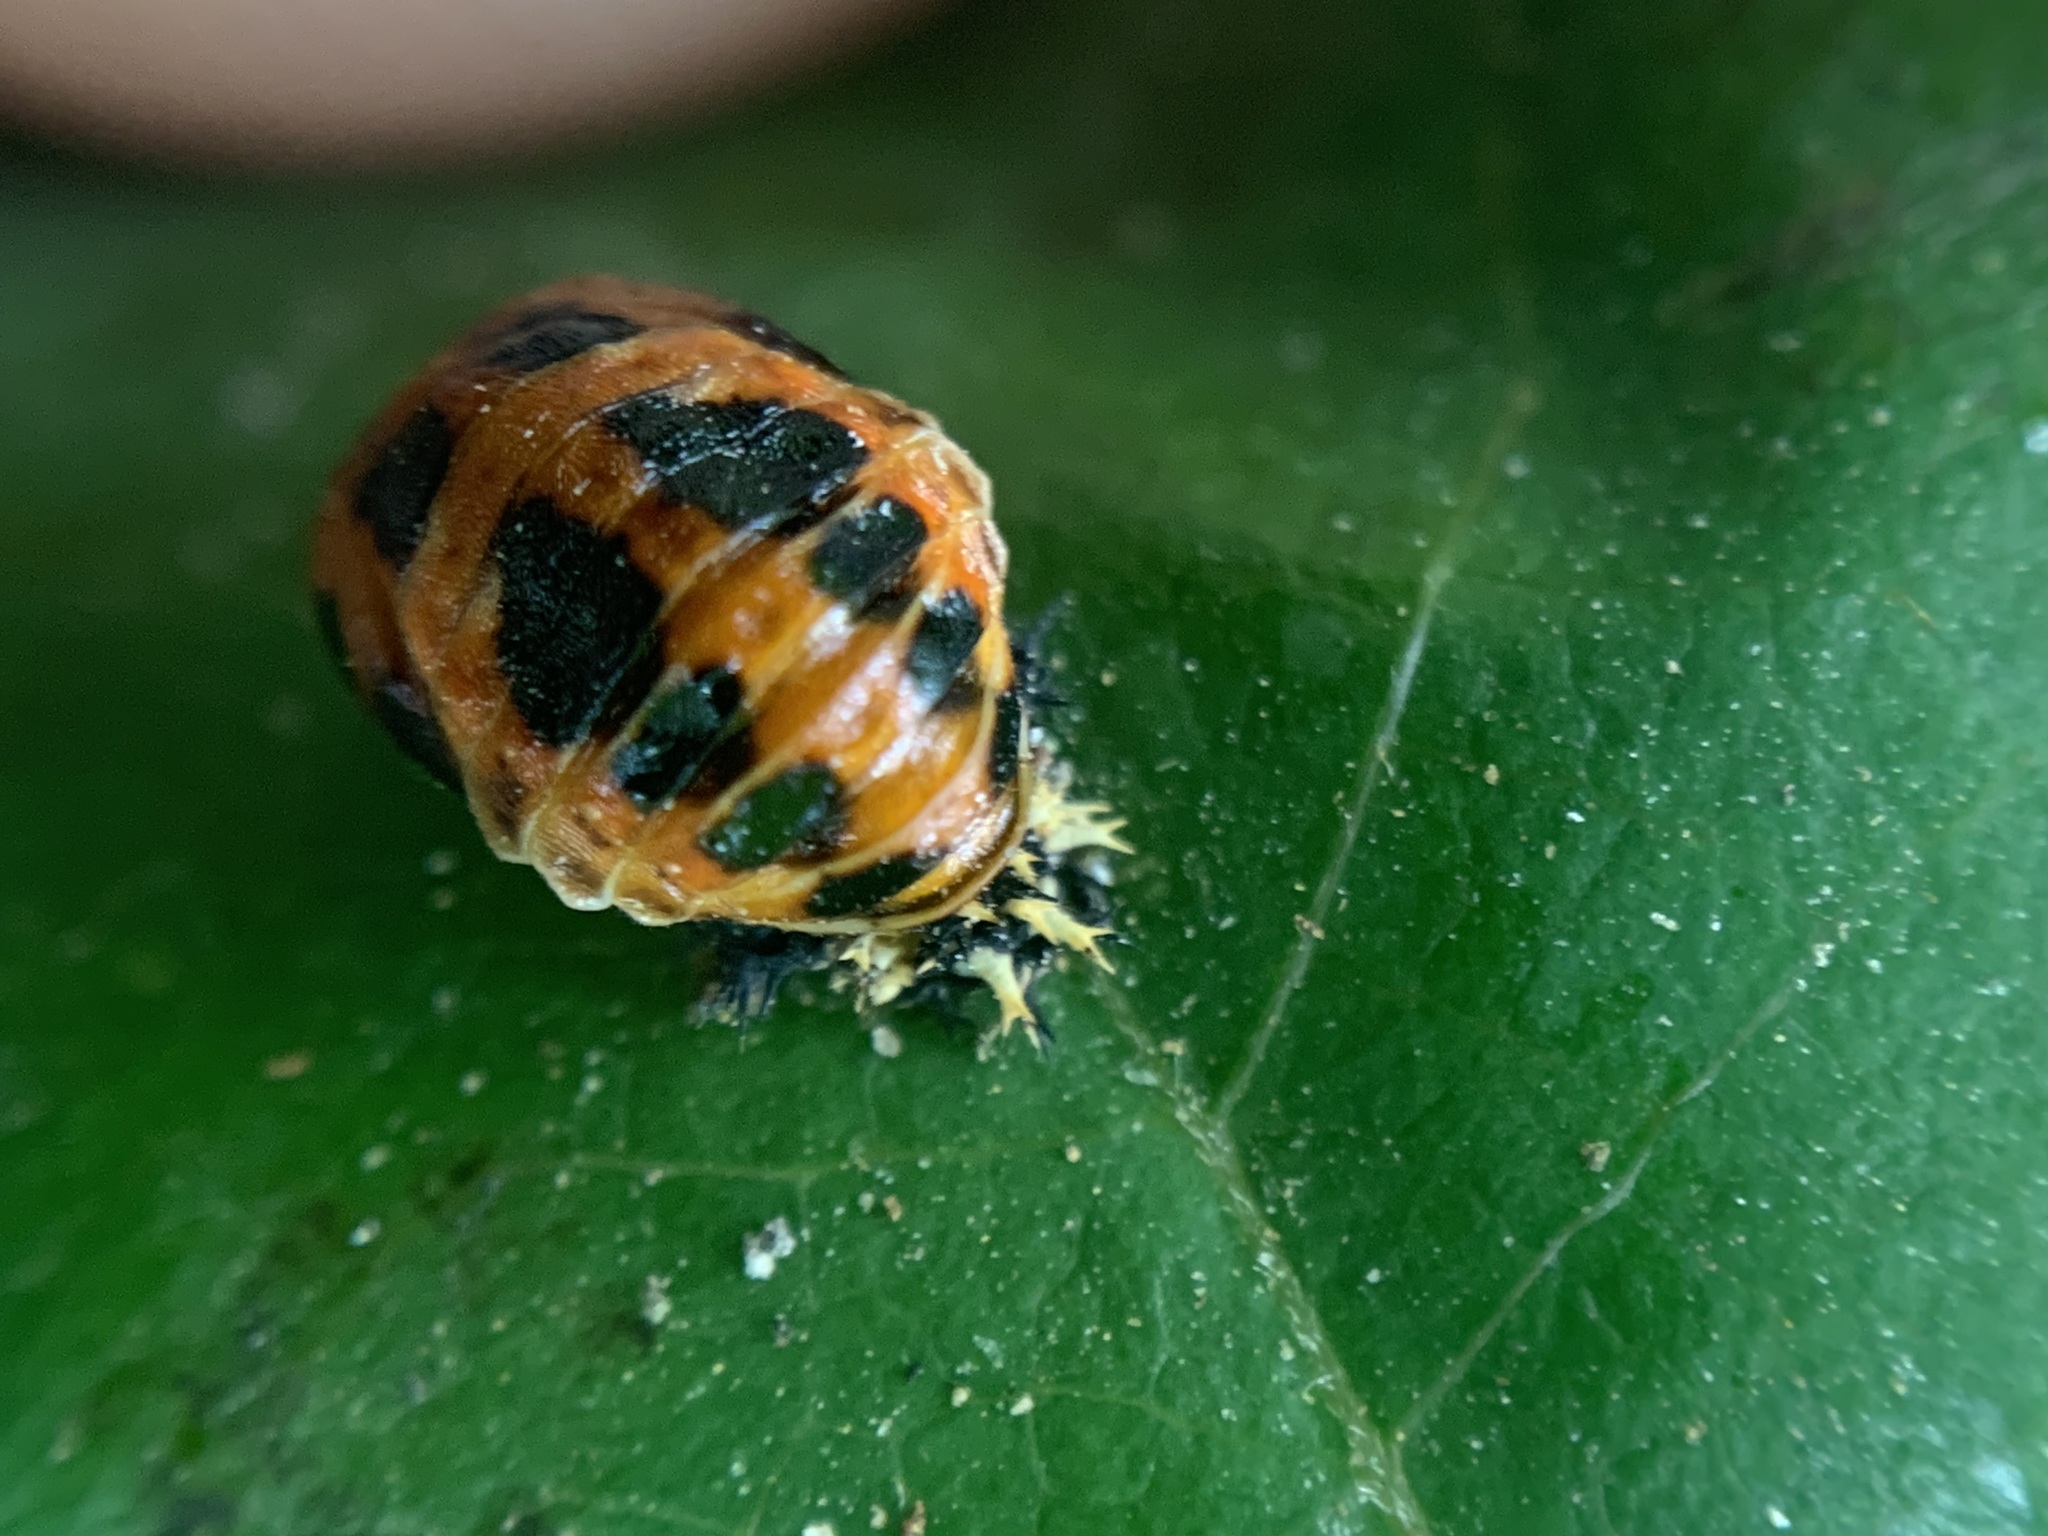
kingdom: Animalia
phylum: Arthropoda
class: Insecta
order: Coleoptera
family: Coccinellidae
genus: Harmonia
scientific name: Harmonia axyridis
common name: Harlequin ladybird
